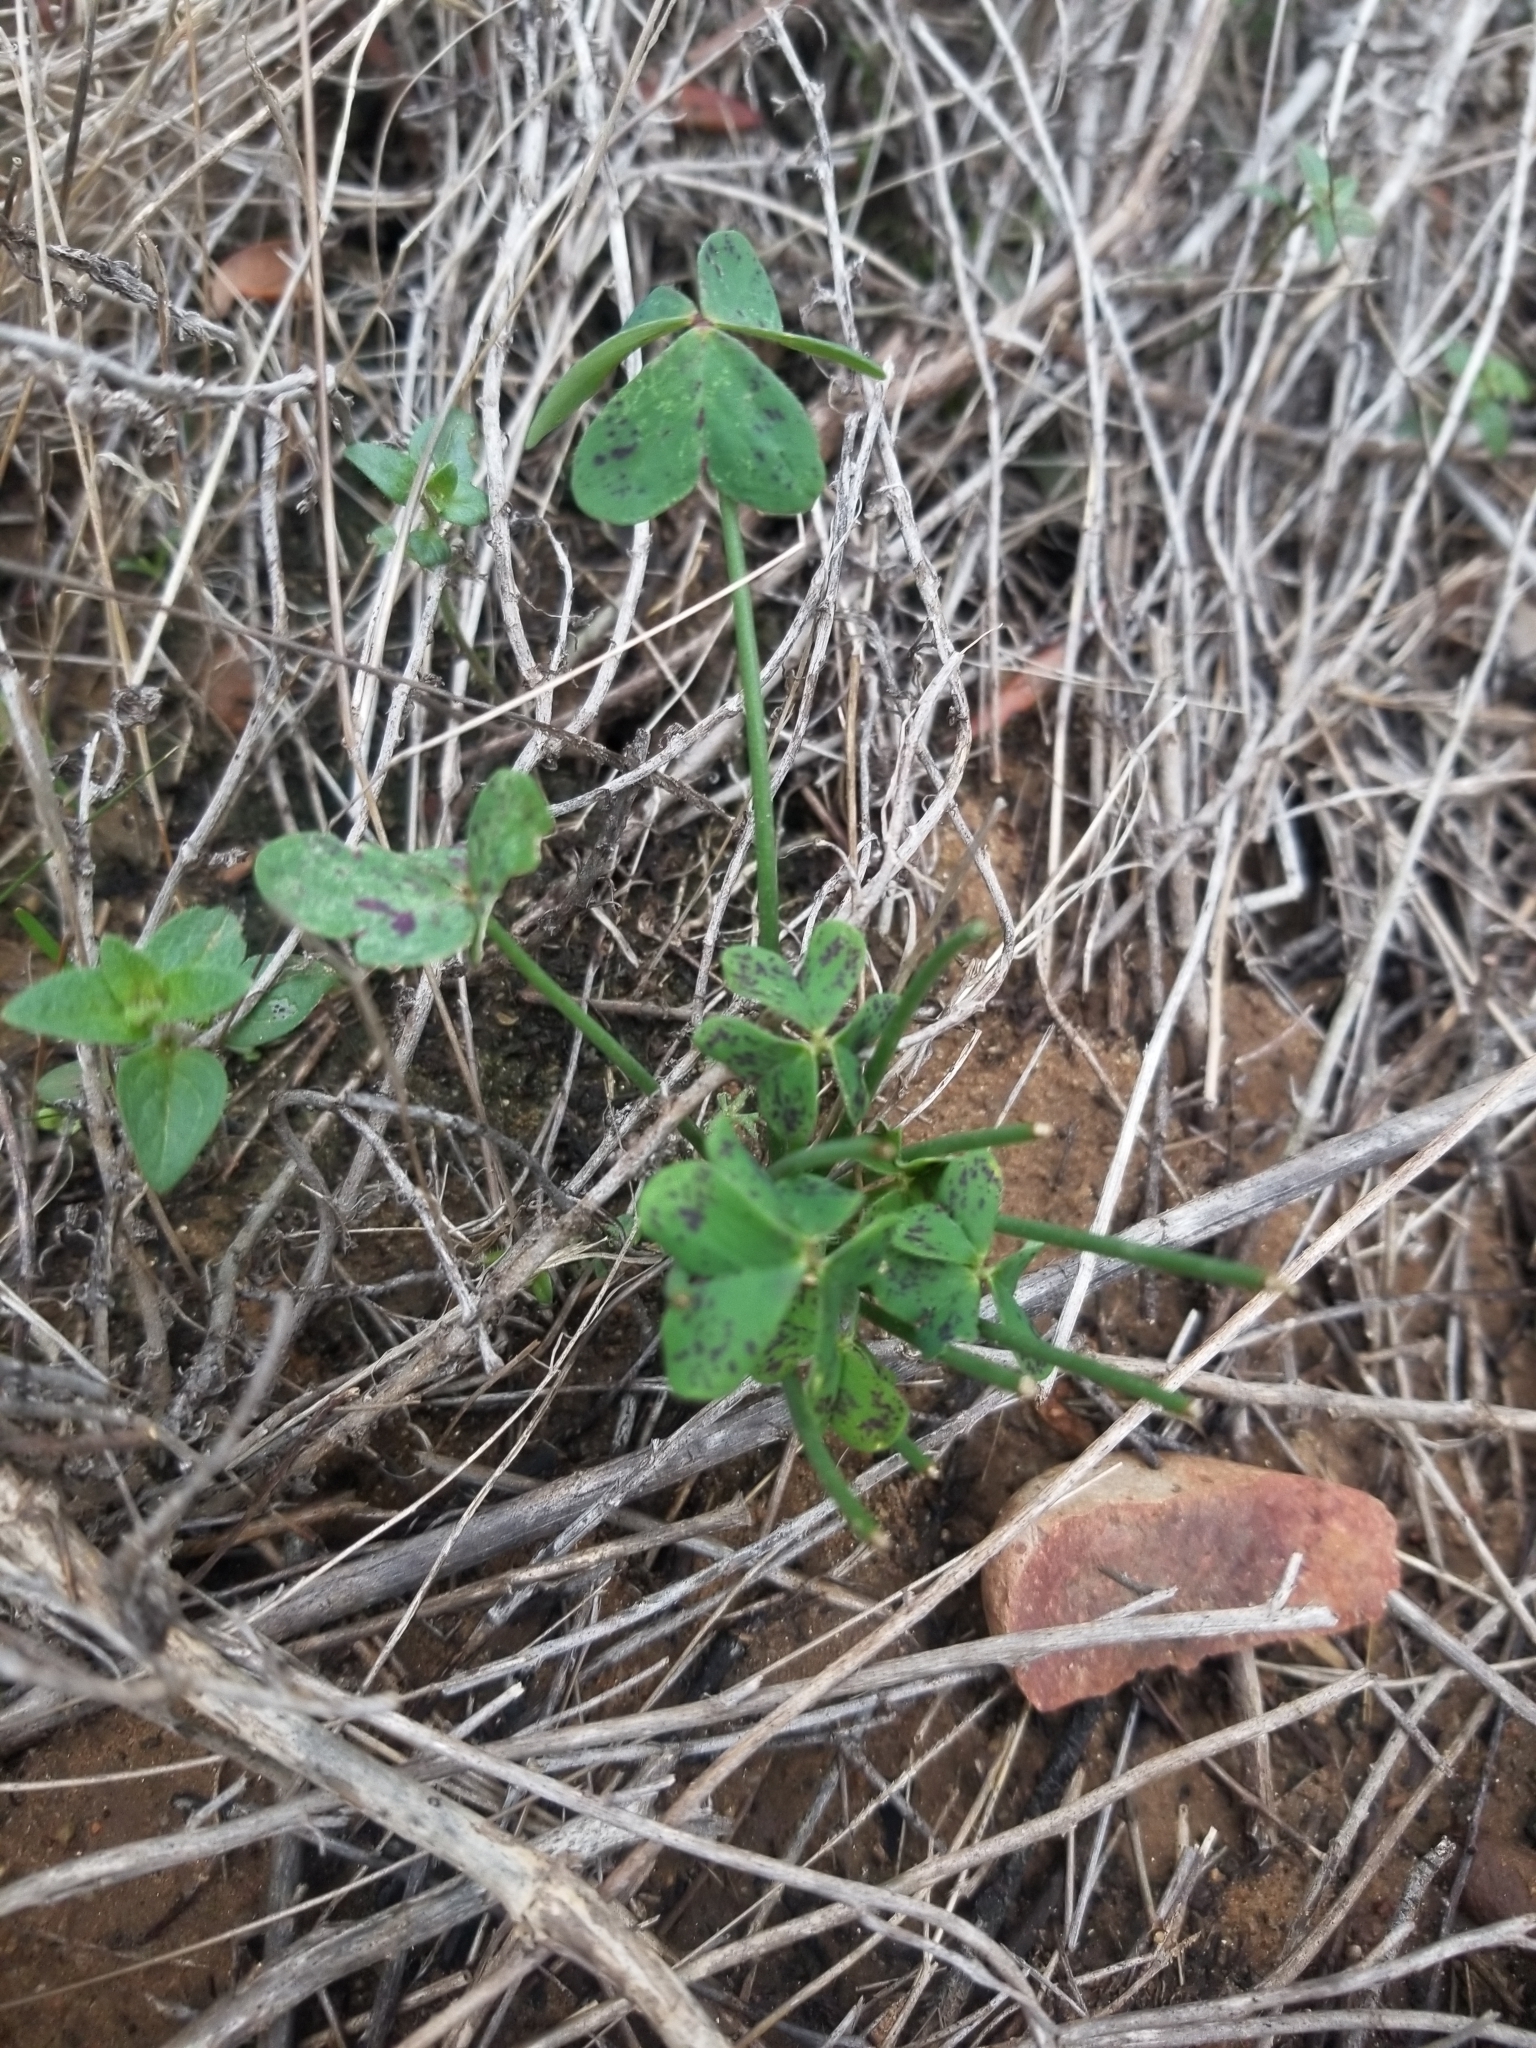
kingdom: Plantae
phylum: Tracheophyta
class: Magnoliopsida
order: Oxalidales
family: Oxalidaceae
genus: Oxalis
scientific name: Oxalis pes-caprae
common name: Bermuda-buttercup
